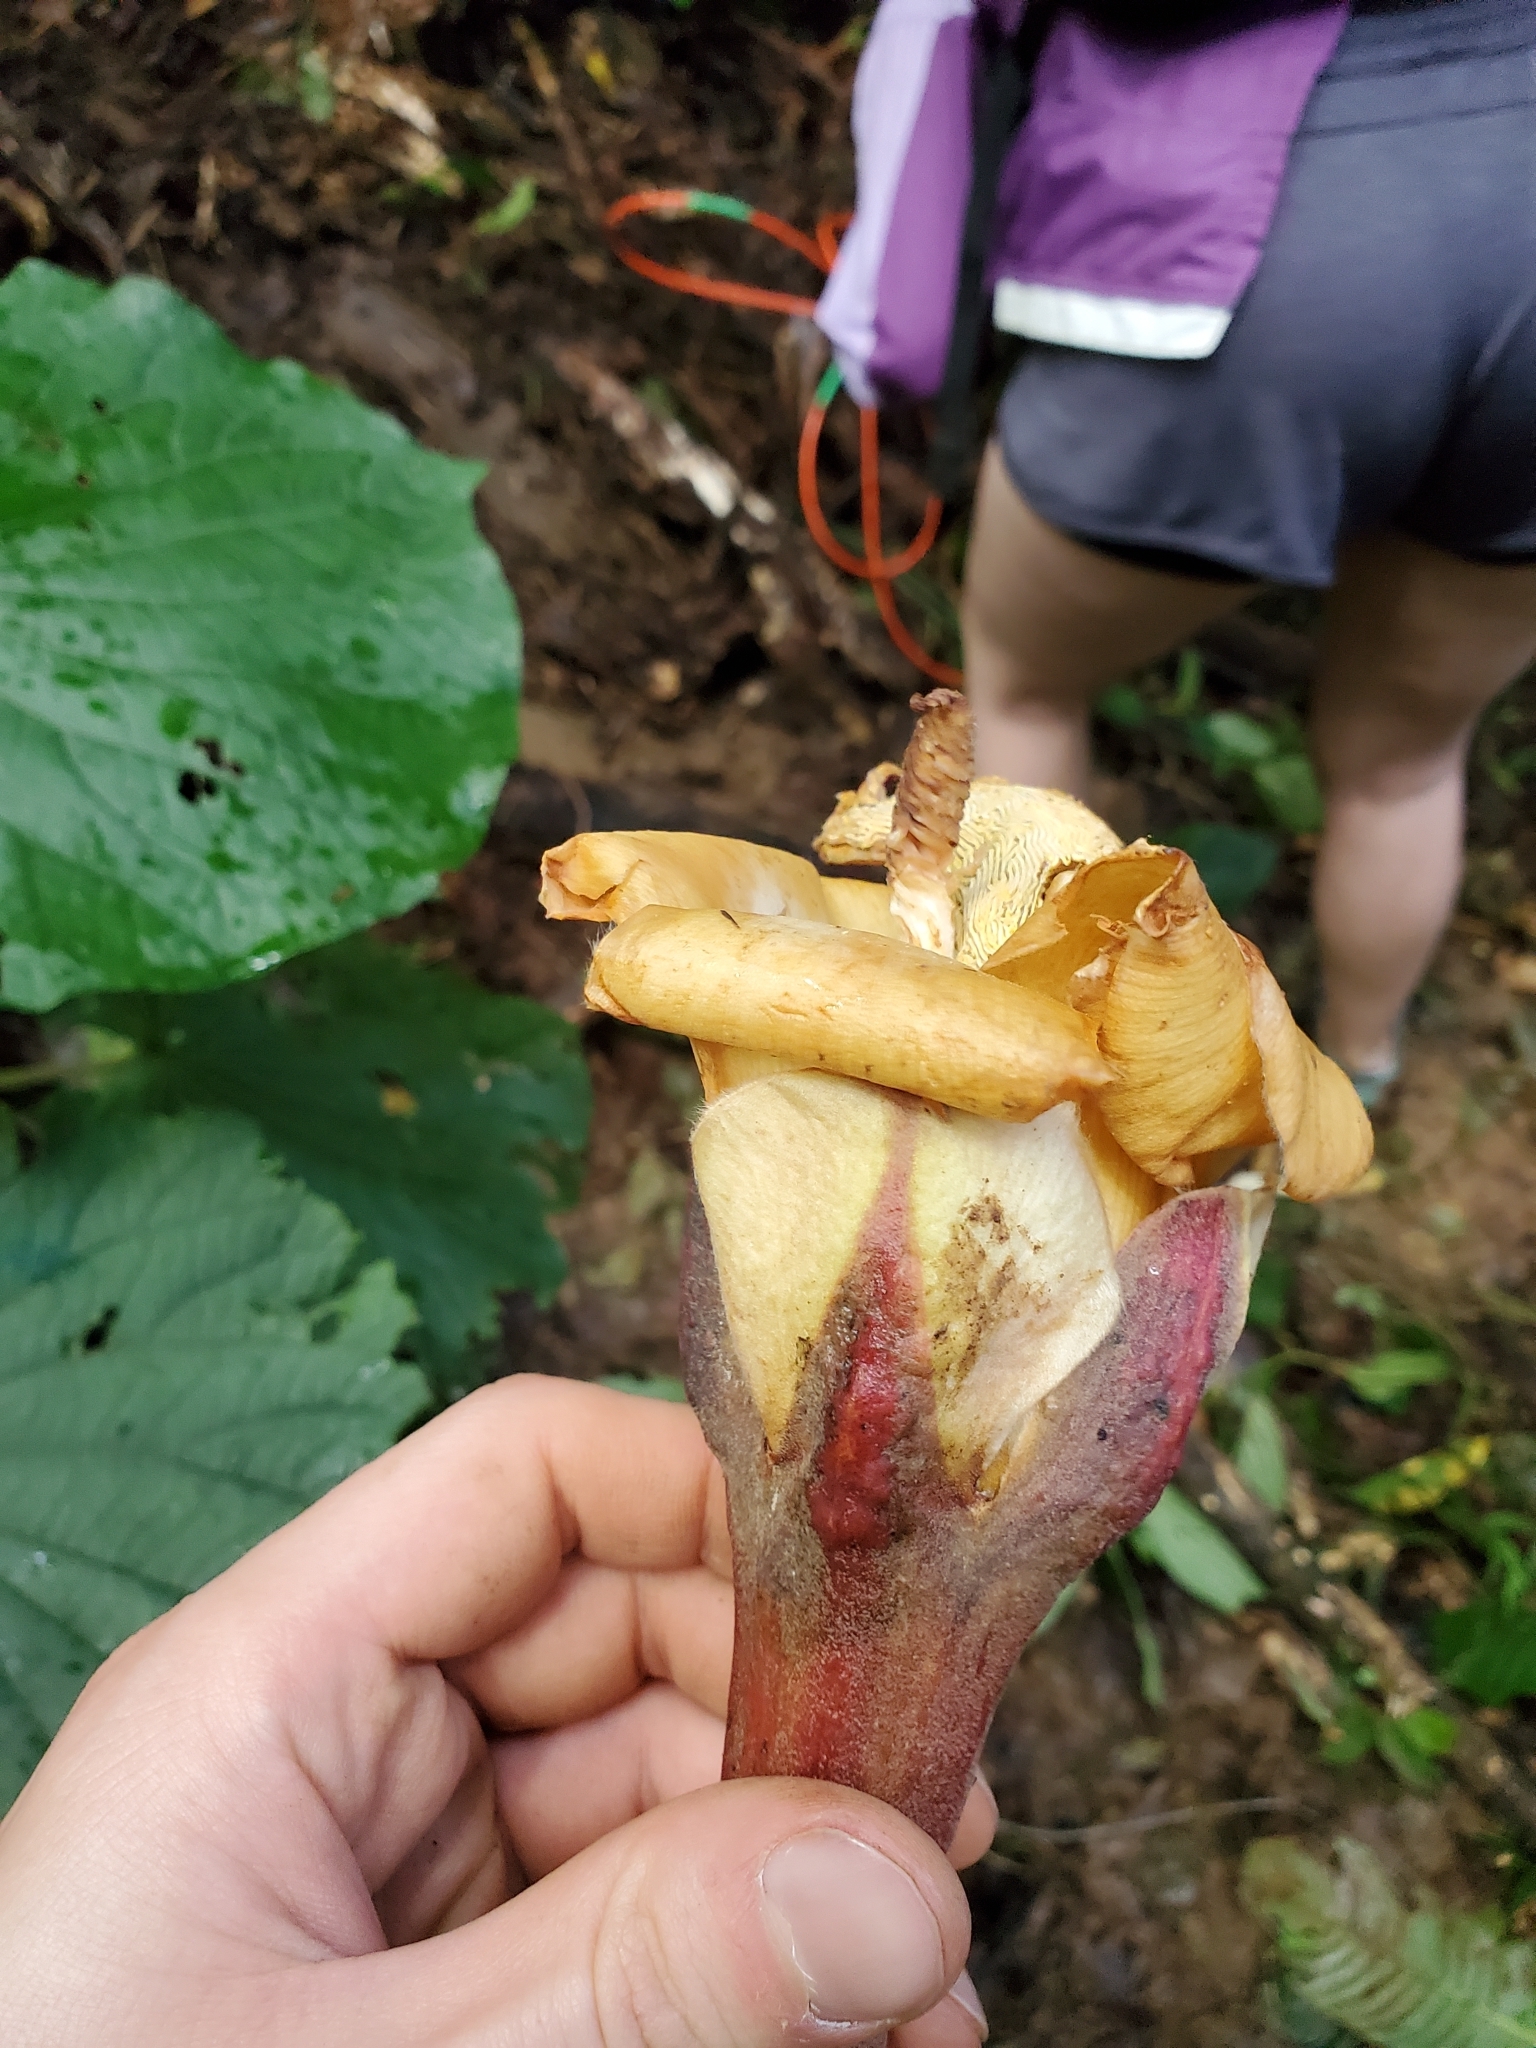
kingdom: Plantae
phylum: Tracheophyta
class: Magnoliopsida
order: Malvales
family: Malvaceae
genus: Ochroma
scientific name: Ochroma pyramidale
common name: Balsa
